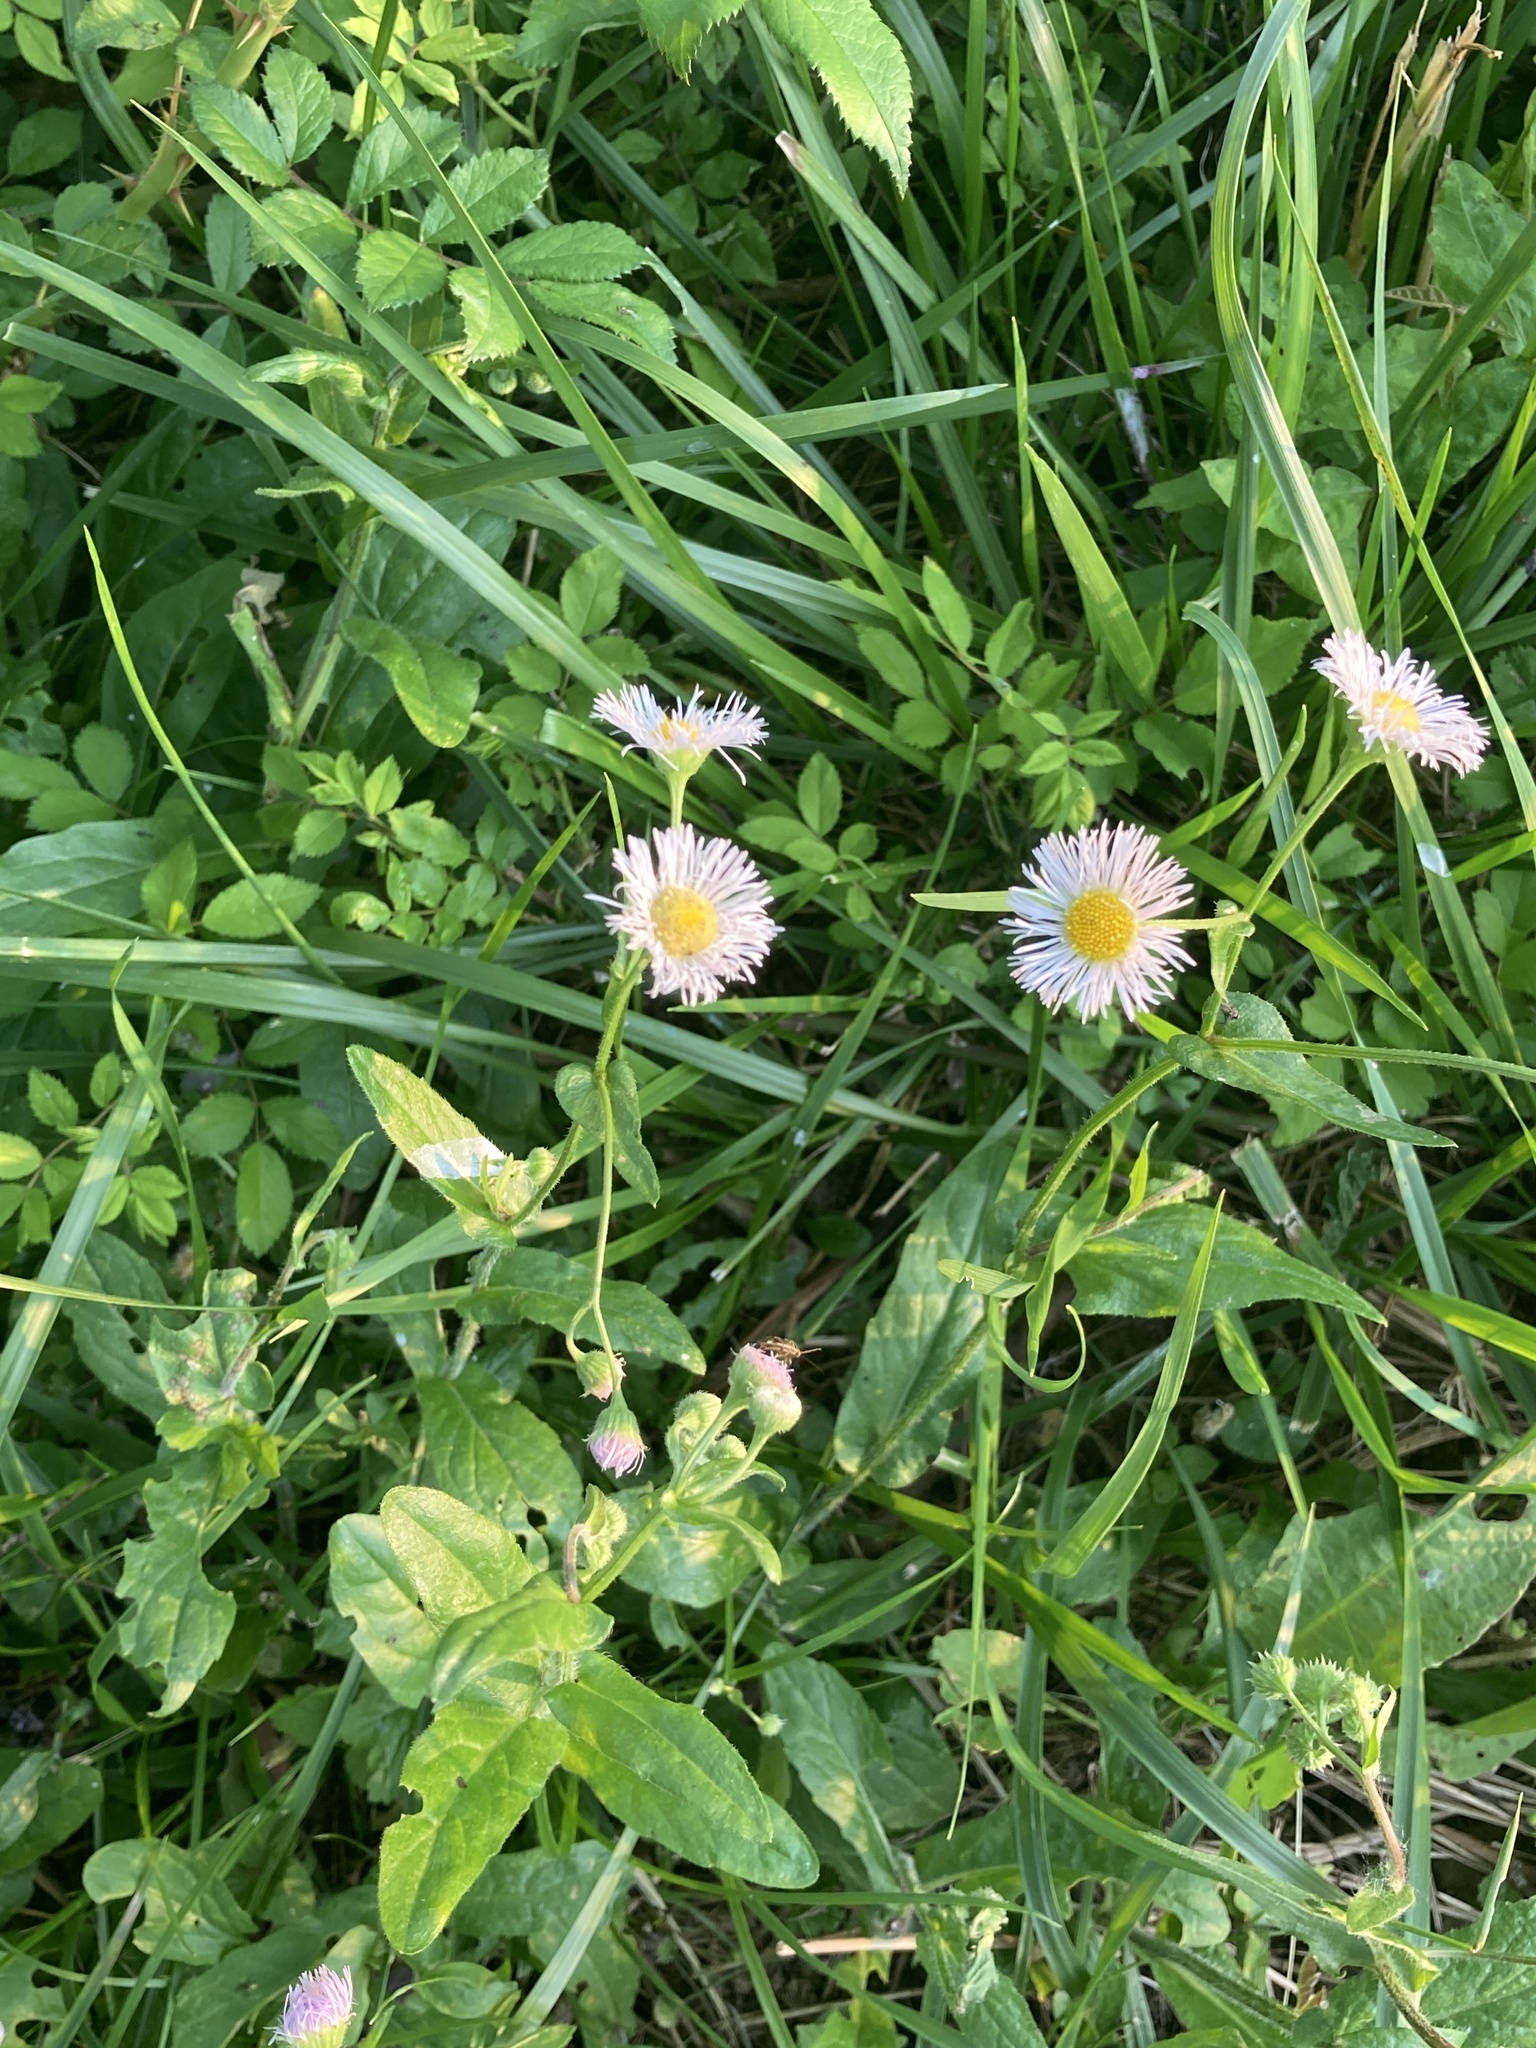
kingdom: Plantae
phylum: Tracheophyta
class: Magnoliopsida
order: Asterales
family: Asteraceae
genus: Erigeron
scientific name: Erigeron philadelphicus
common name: Robin's-plantain
